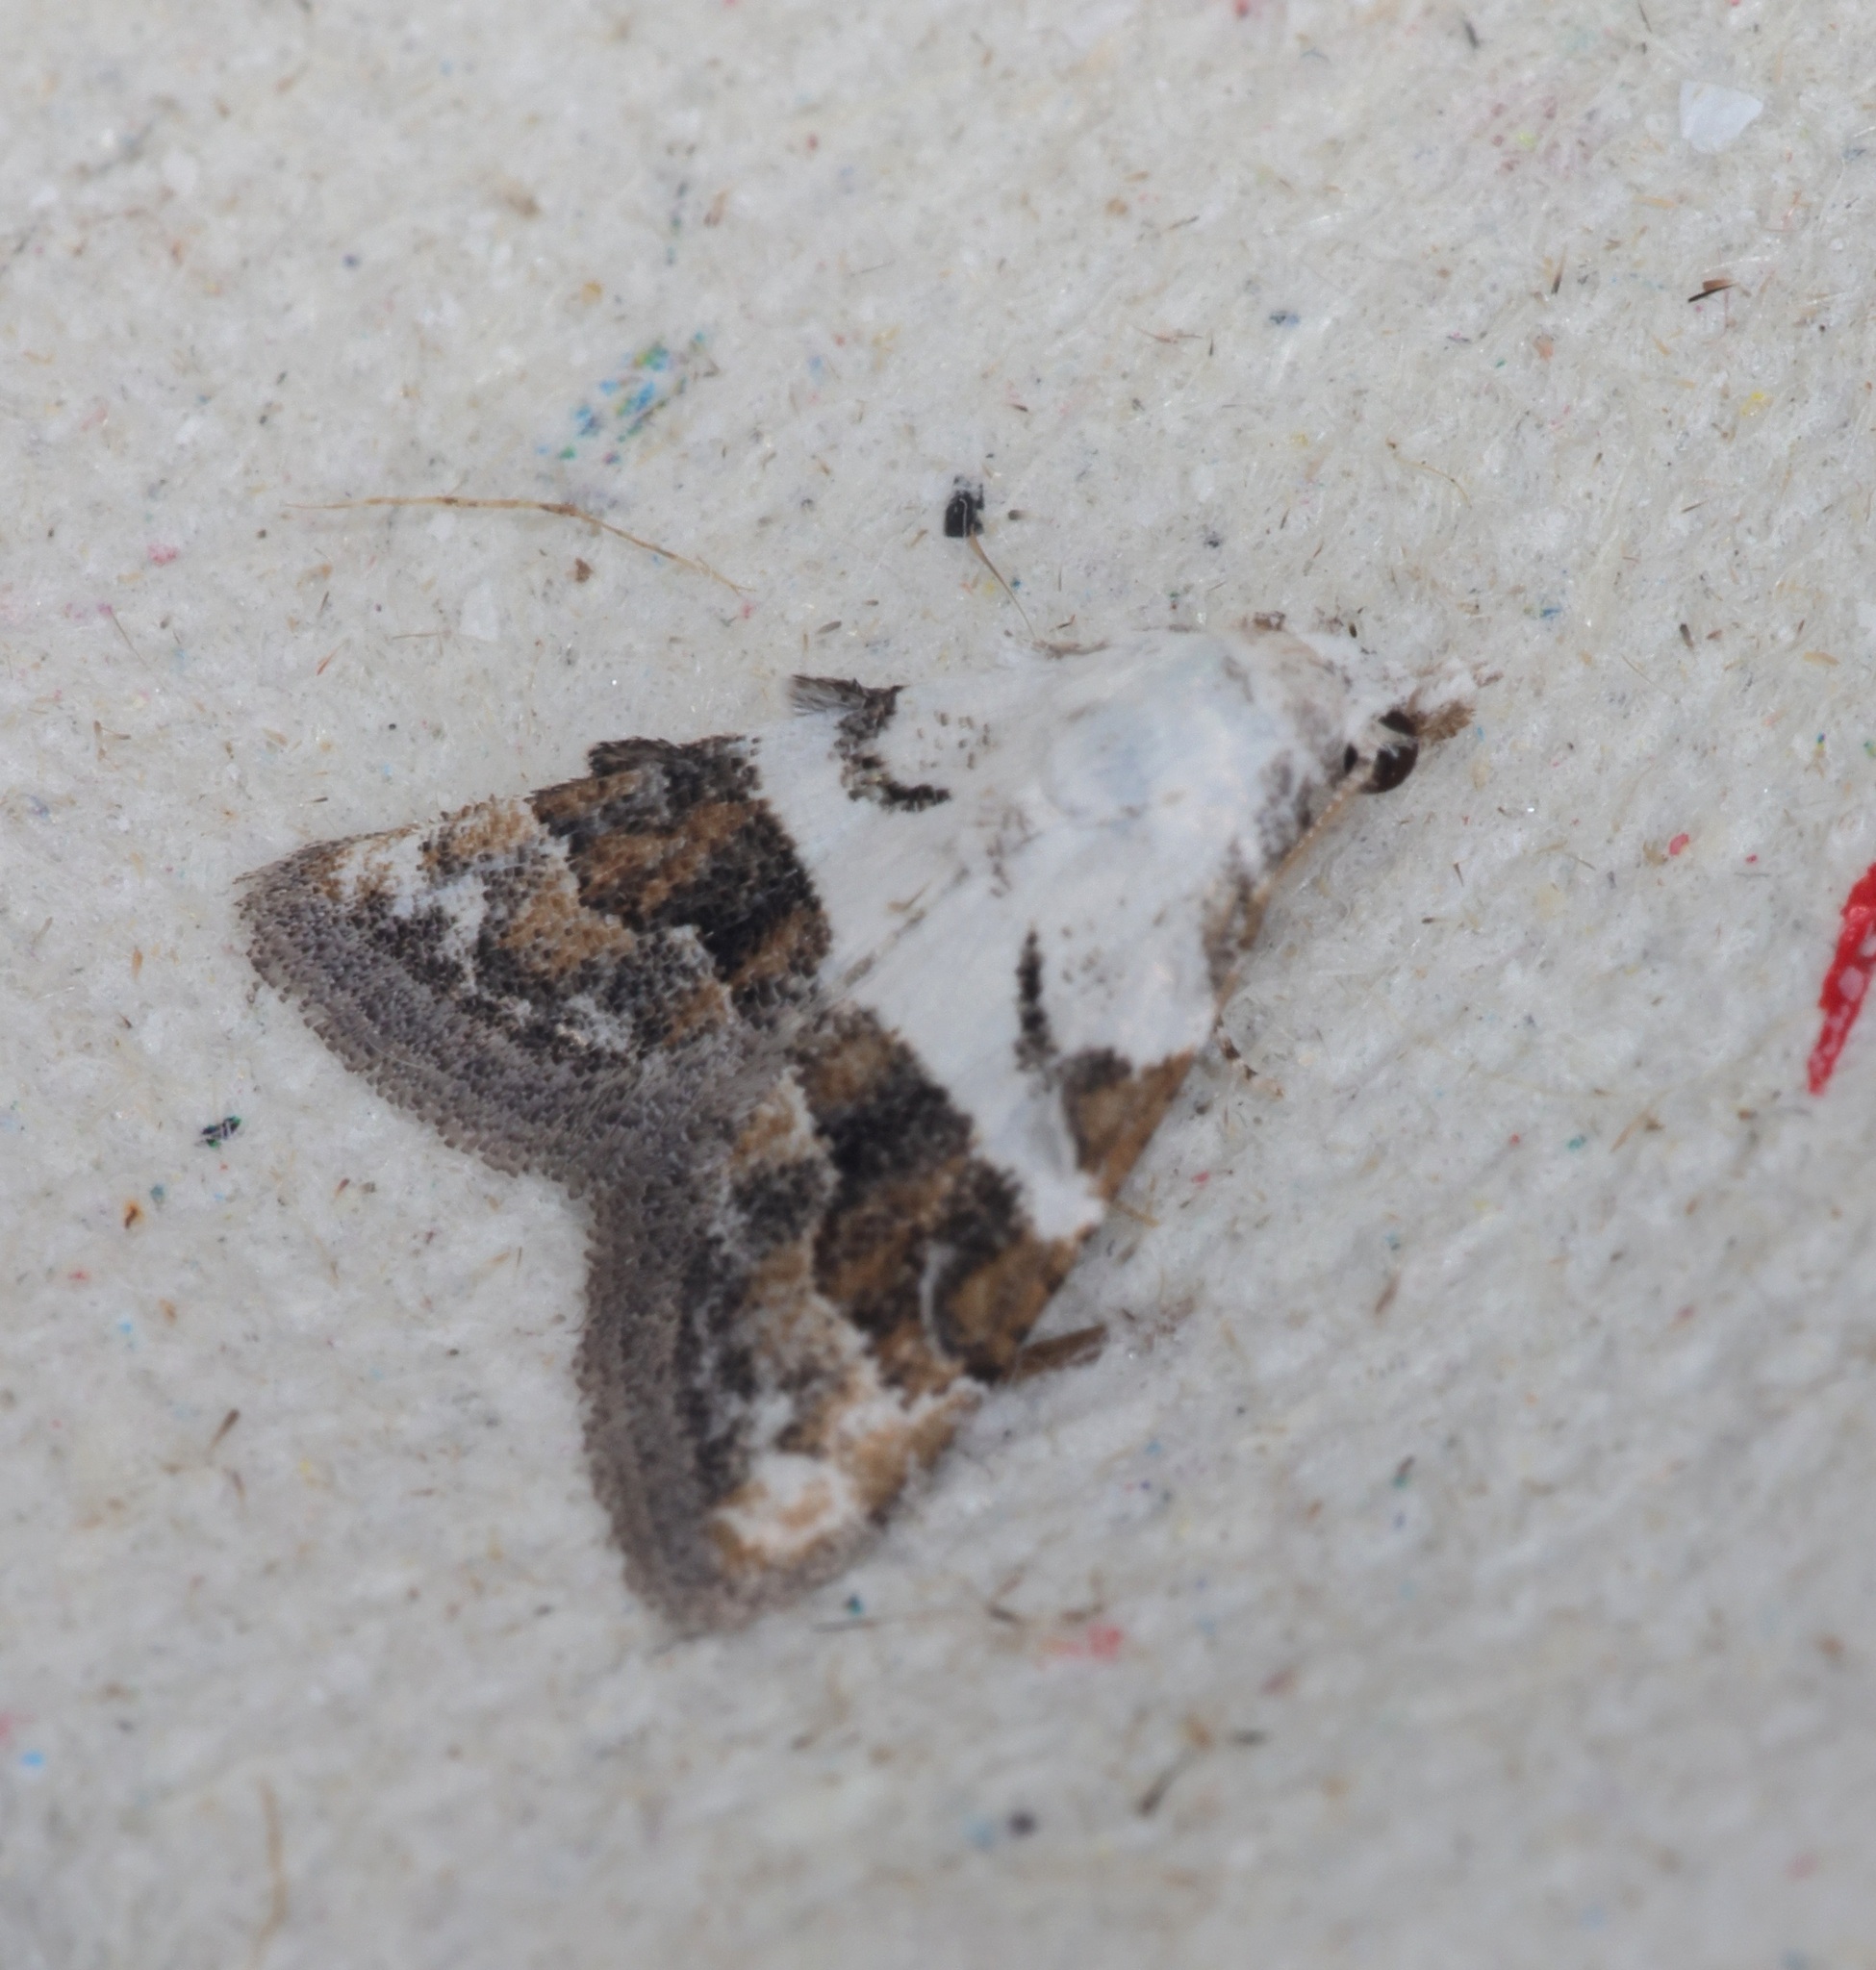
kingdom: Animalia
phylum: Arthropoda
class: Insecta
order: Lepidoptera
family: Nolidae
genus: Nola
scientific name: Nola lucidalis
